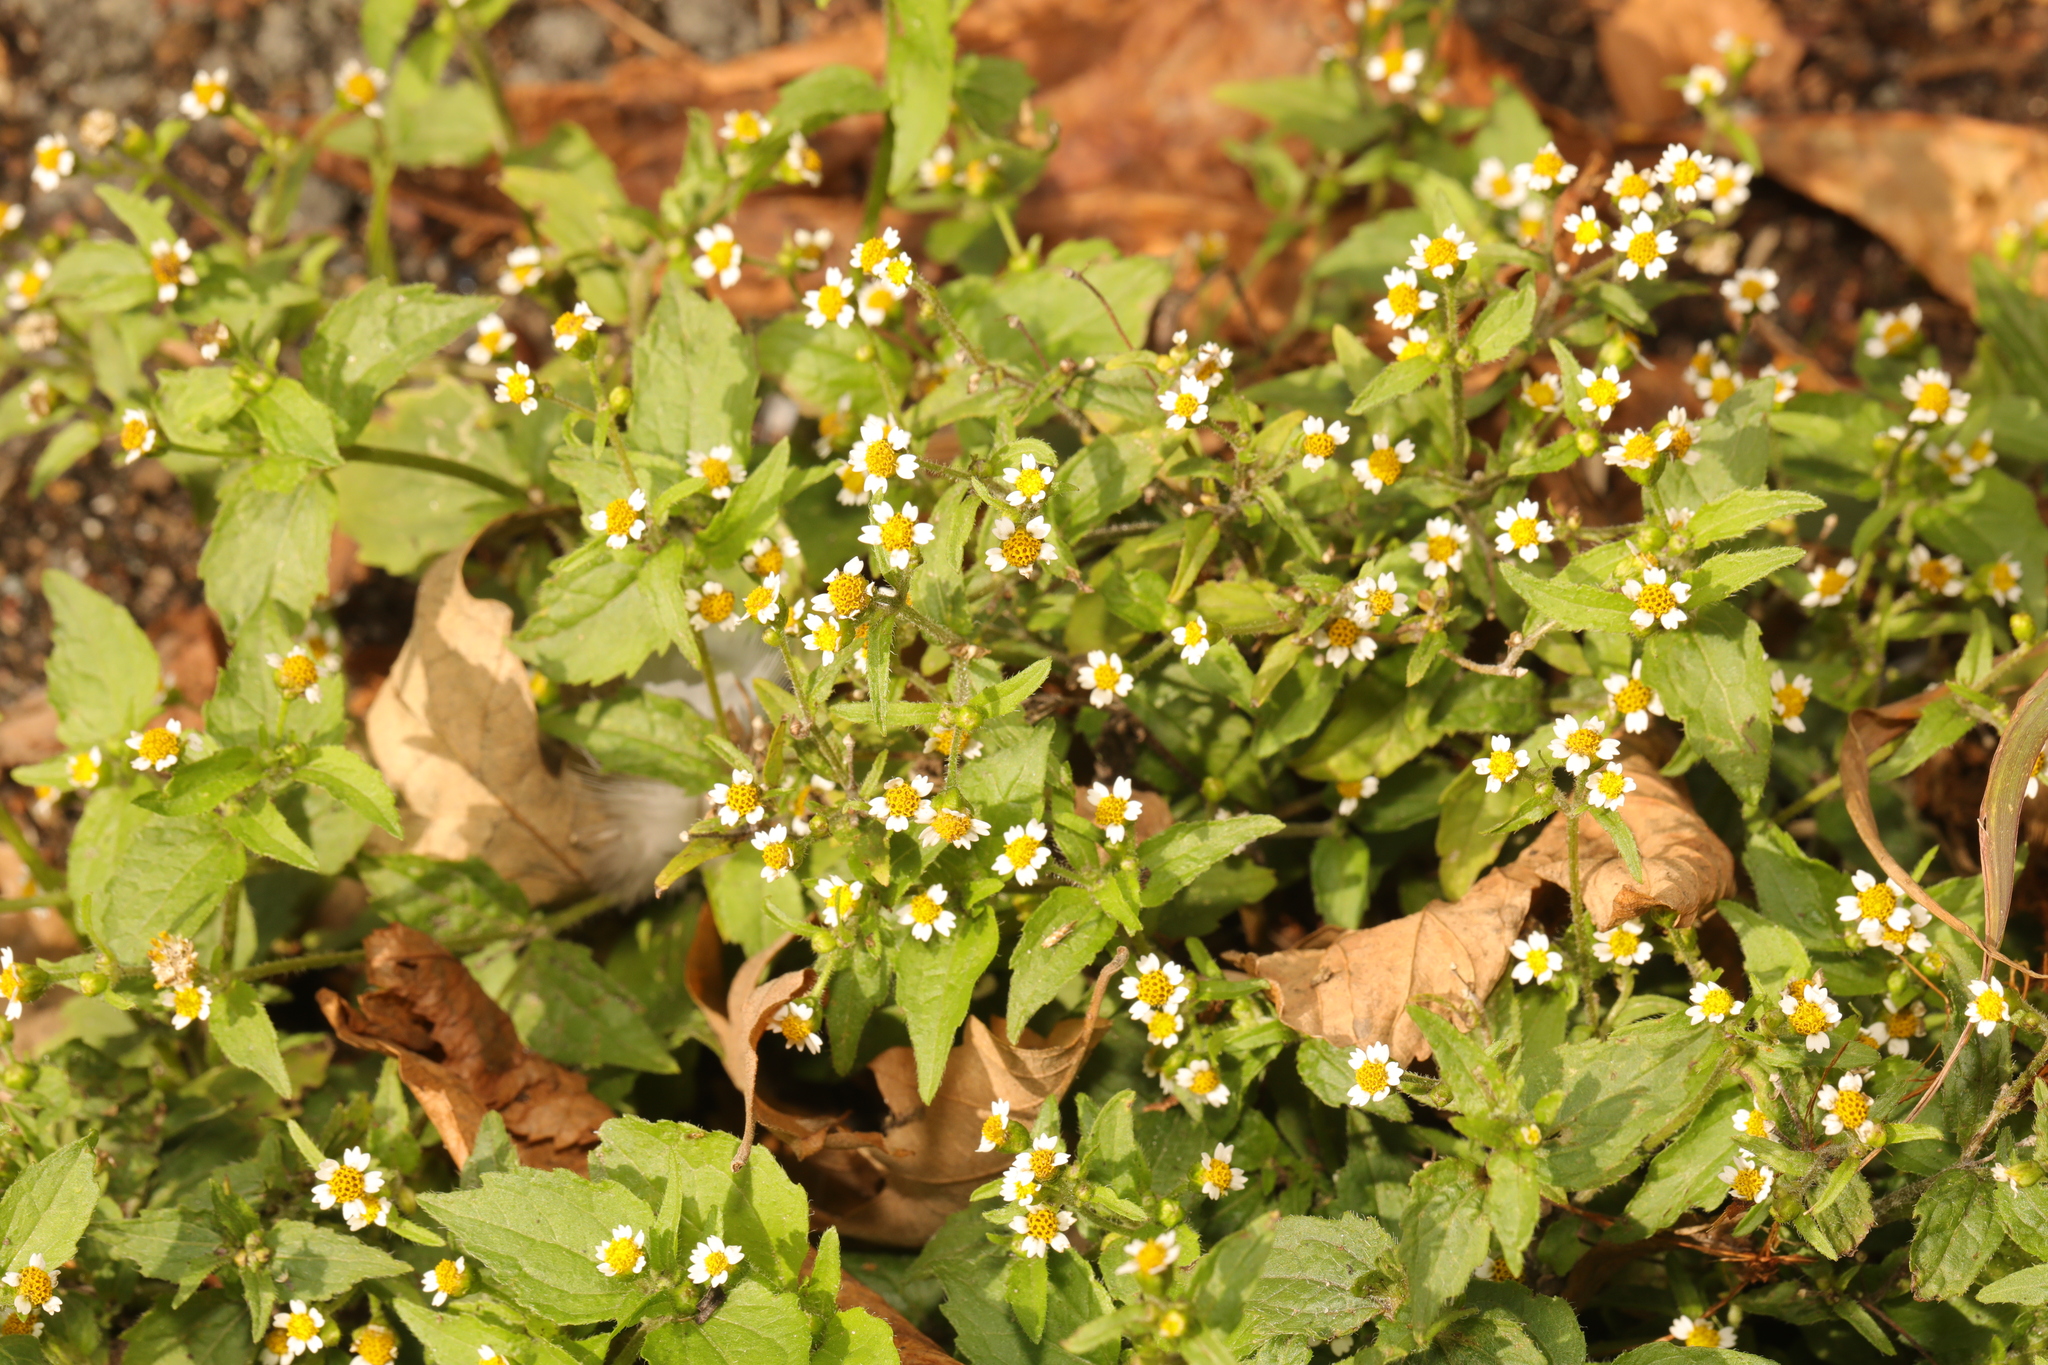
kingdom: Plantae
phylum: Tracheophyta
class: Magnoliopsida
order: Asterales
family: Asteraceae
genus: Galinsoga
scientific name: Galinsoga quadriradiata
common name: Shaggy soldier
